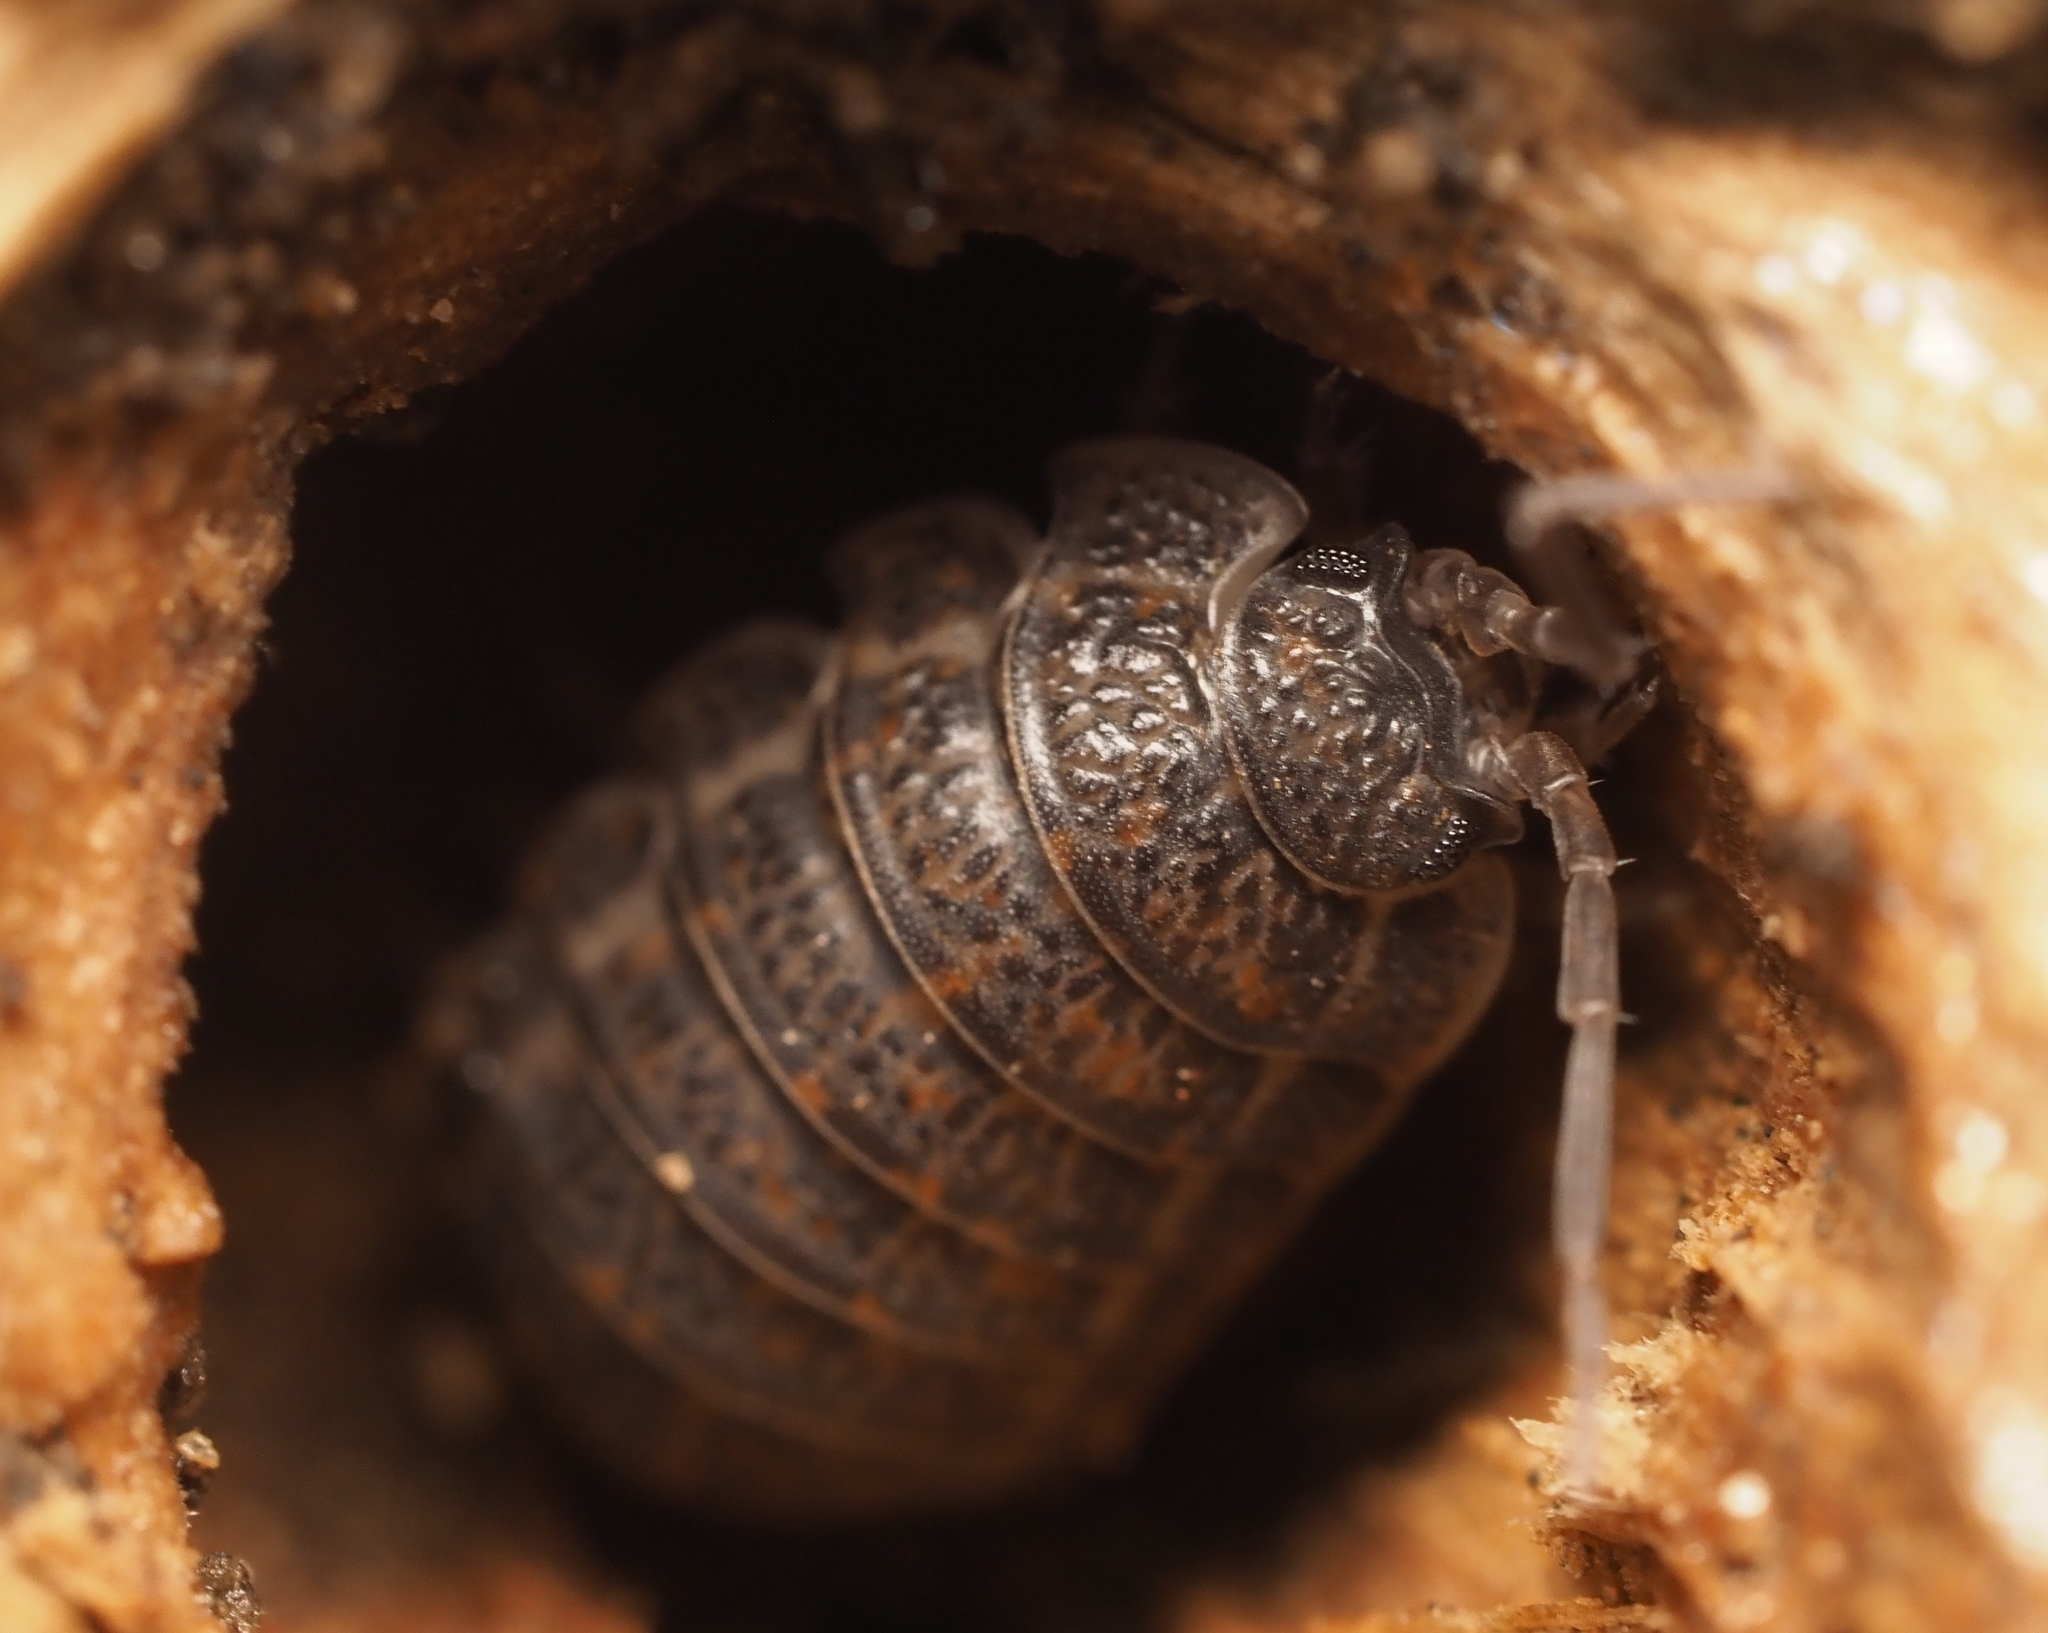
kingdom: Animalia
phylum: Arthropoda
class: Malacostraca
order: Isopoda
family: Trachelipodidae
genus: Trachelipus
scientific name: Trachelipus rathkii
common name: Isopod
